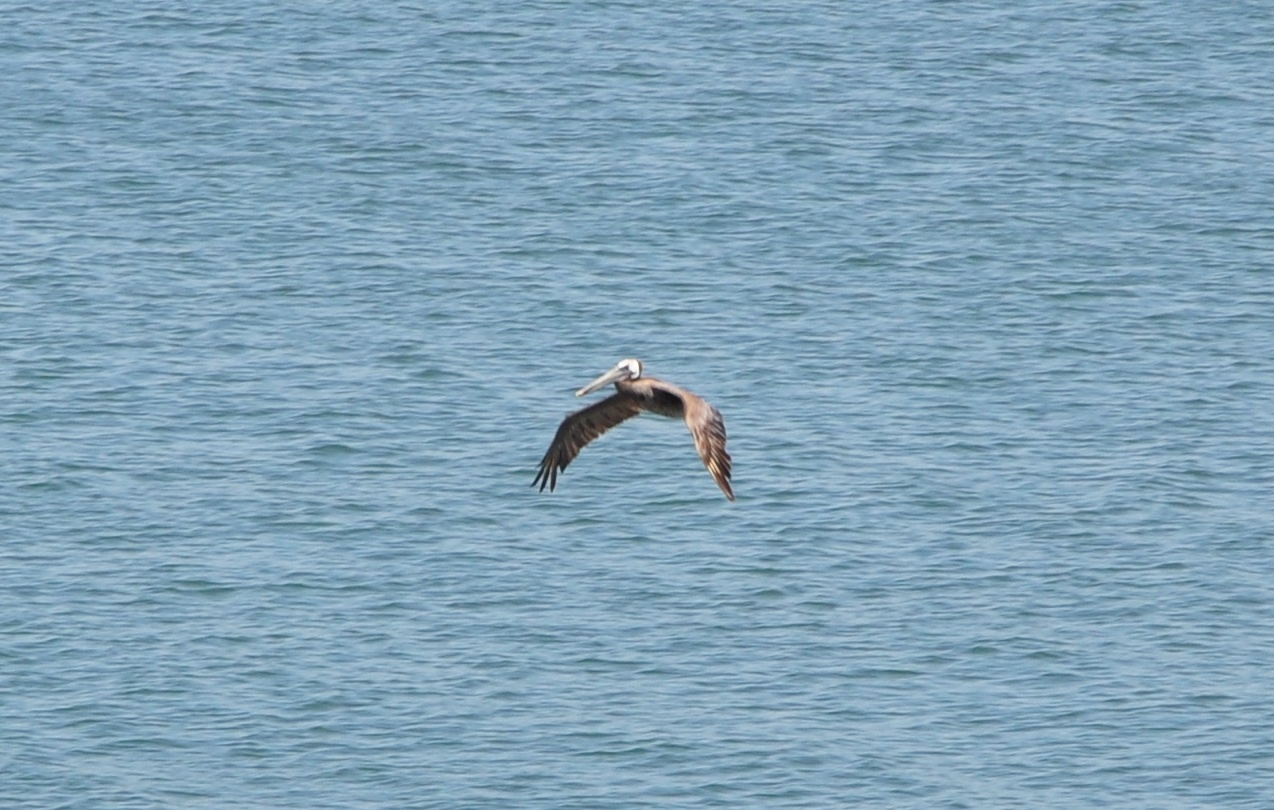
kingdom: Animalia
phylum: Chordata
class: Aves
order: Pelecaniformes
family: Pelecanidae
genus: Pelecanus
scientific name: Pelecanus occidentalis
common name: Brown pelican
